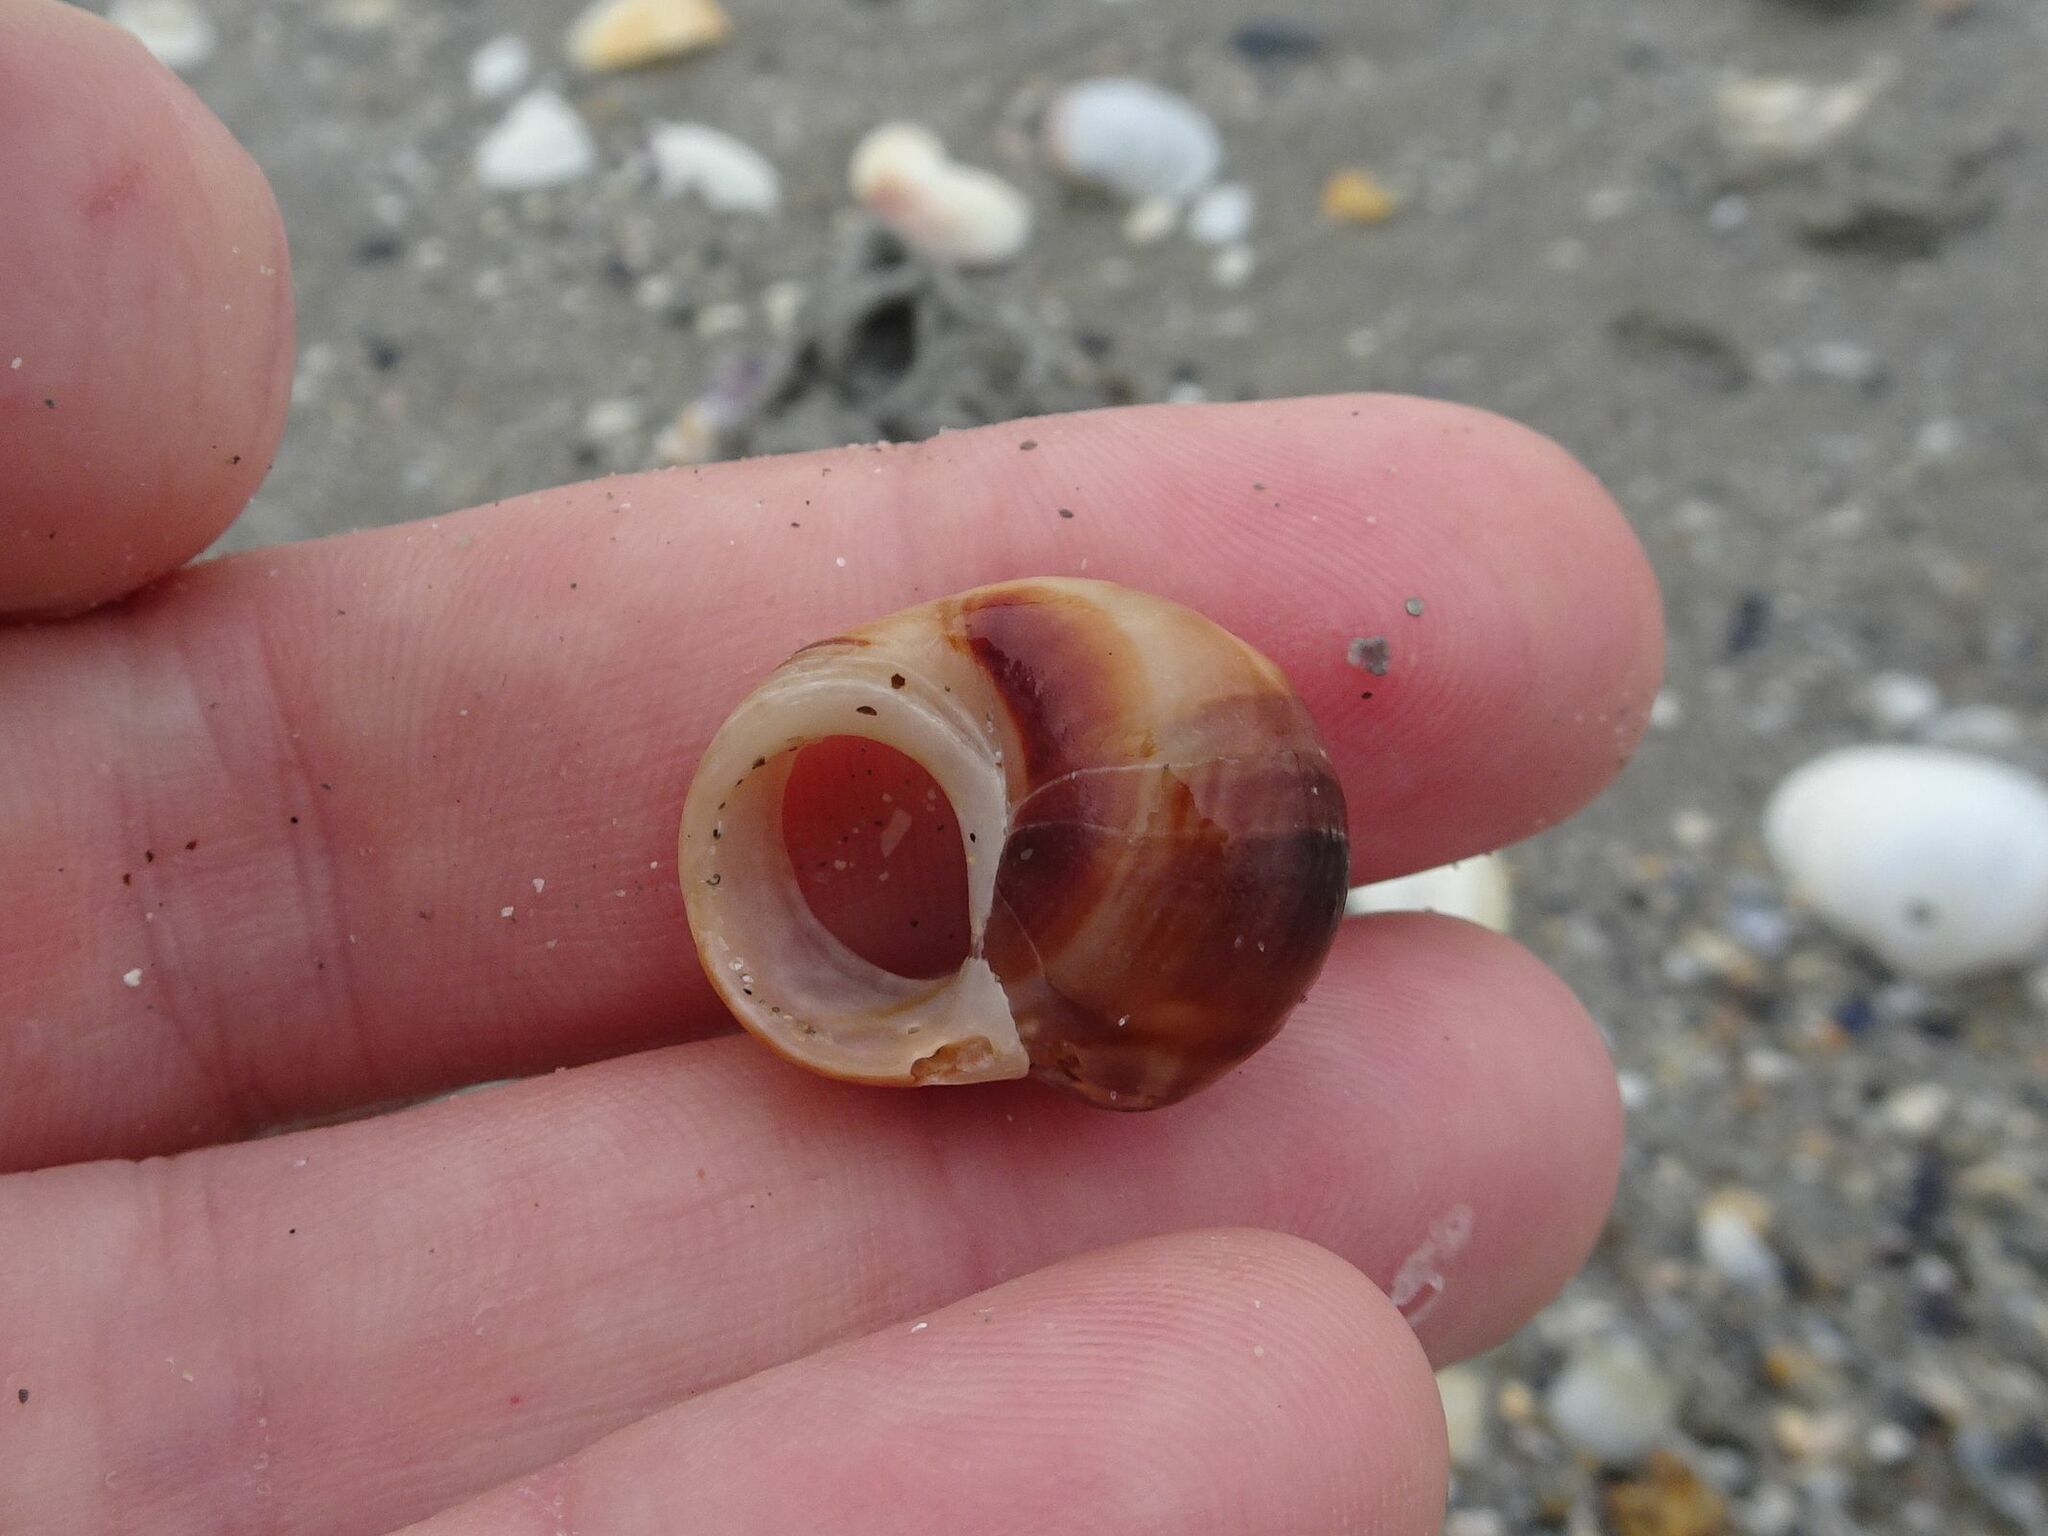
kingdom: Animalia
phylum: Mollusca
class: Gastropoda
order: Littorinimorpha
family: Littorinidae
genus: Littorina
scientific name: Littorina littorea
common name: Common periwinkle
